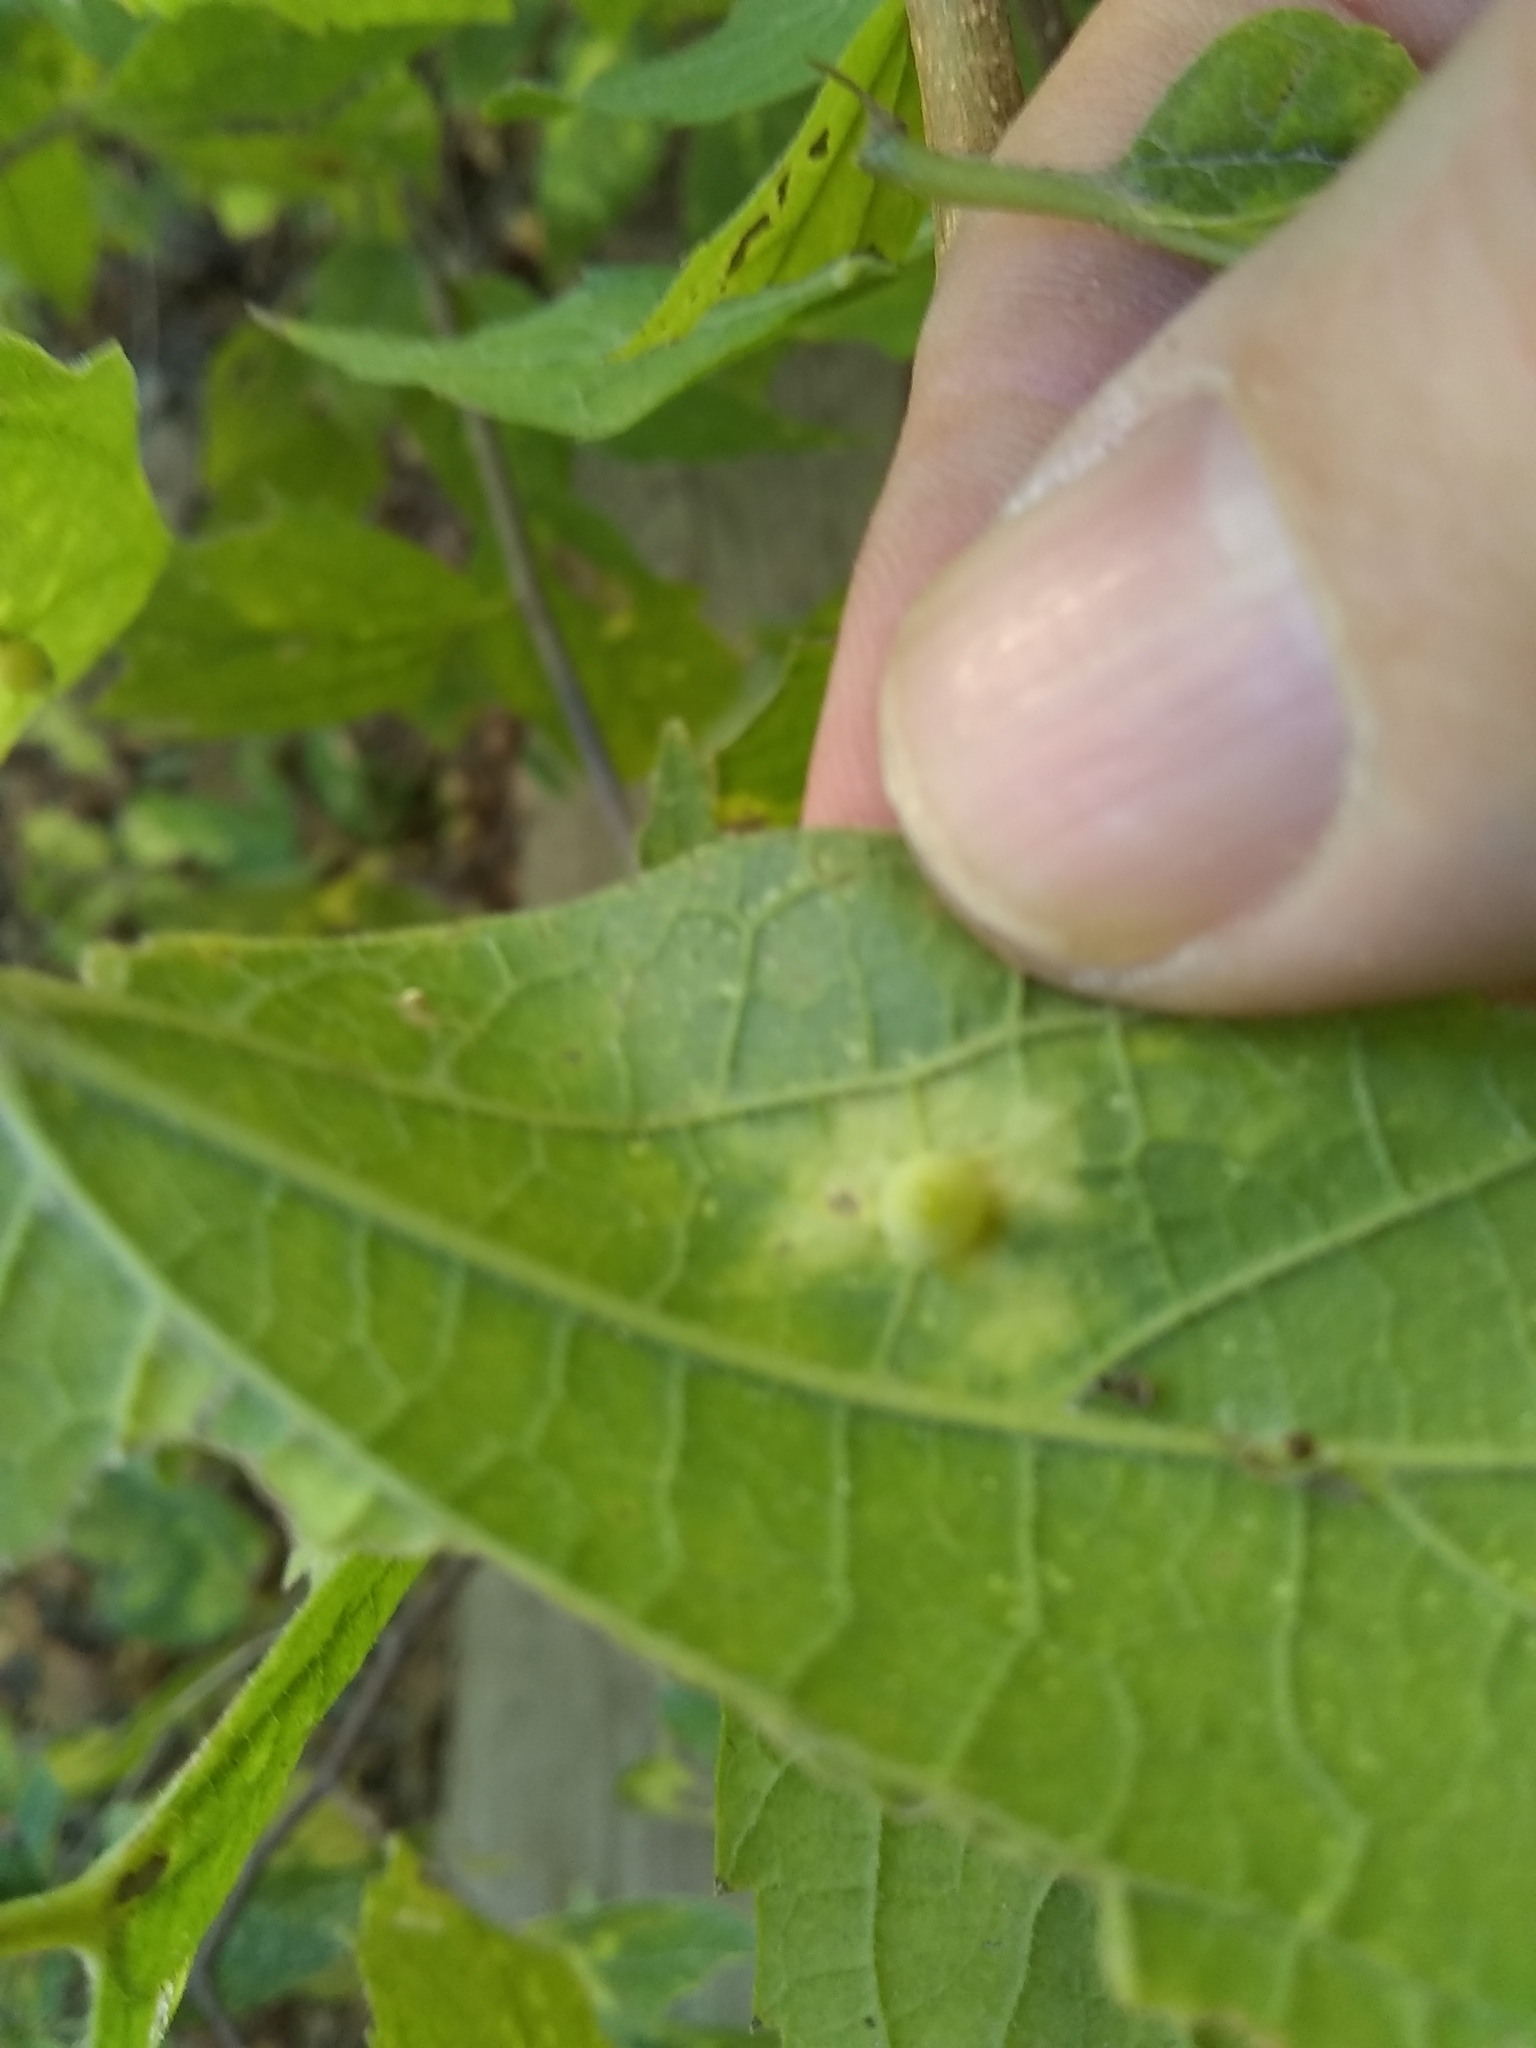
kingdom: Animalia
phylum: Arthropoda
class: Insecta
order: Hemiptera
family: Aphalaridae
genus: Pachypsylla
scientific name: Pachypsylla celtidismamma
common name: Hackberry nipplegall psyllid
